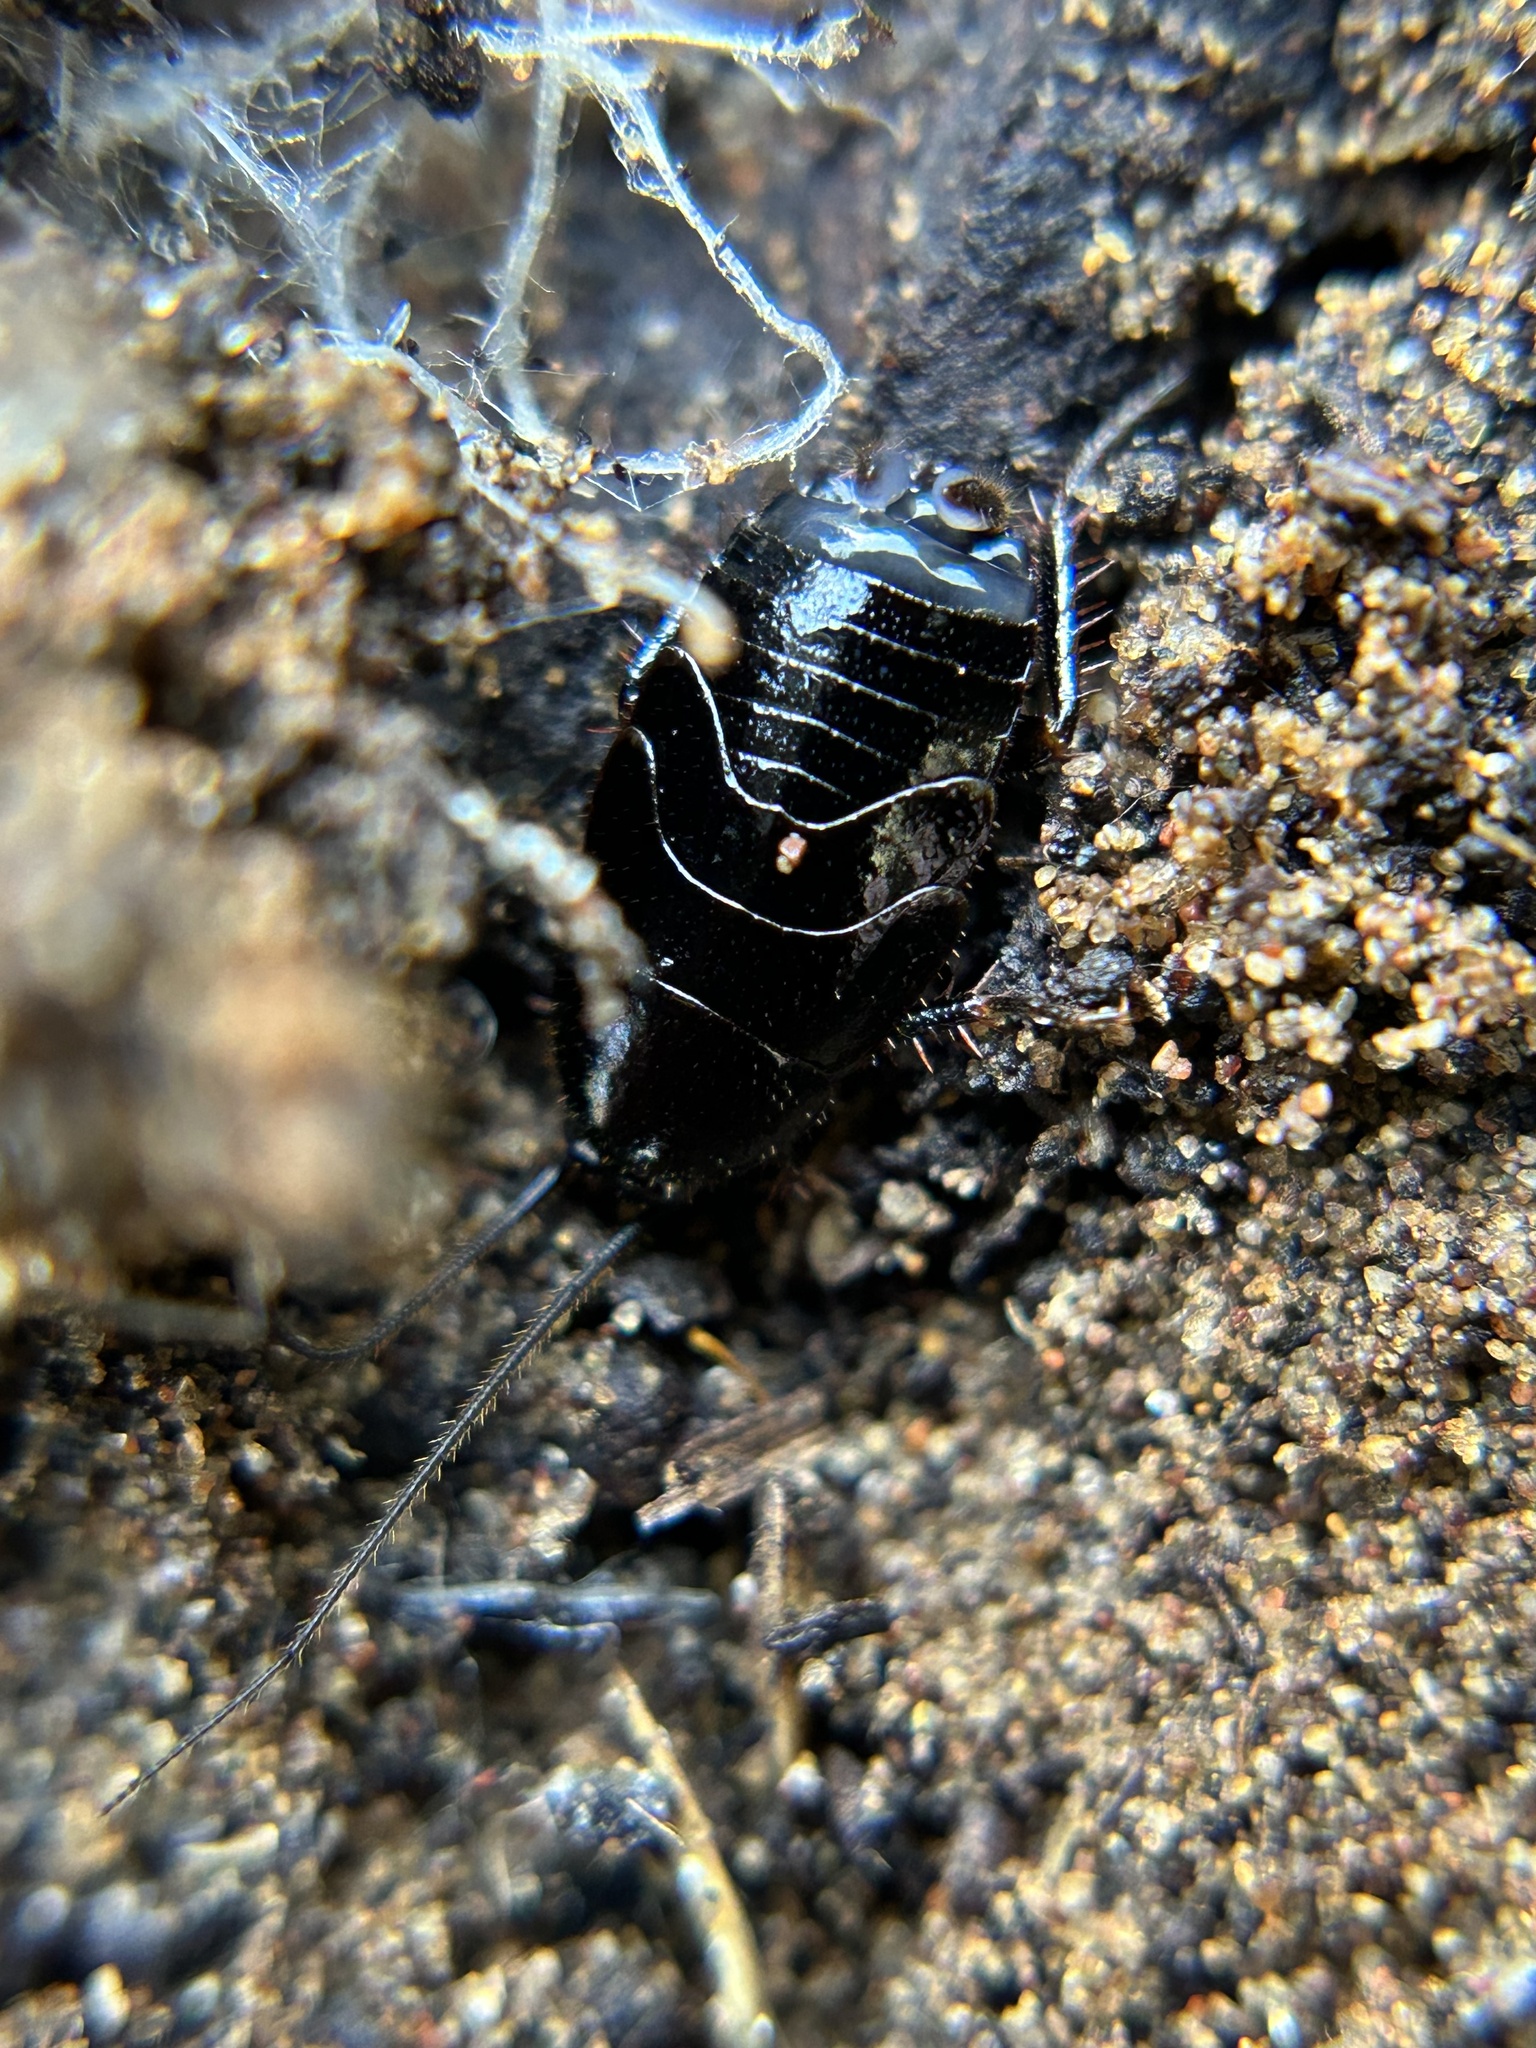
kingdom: Animalia
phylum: Arthropoda
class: Insecta
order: Blattodea
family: Ectobiidae
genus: Parcoblatta
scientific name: Parcoblatta americana
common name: Western wood cockroach
